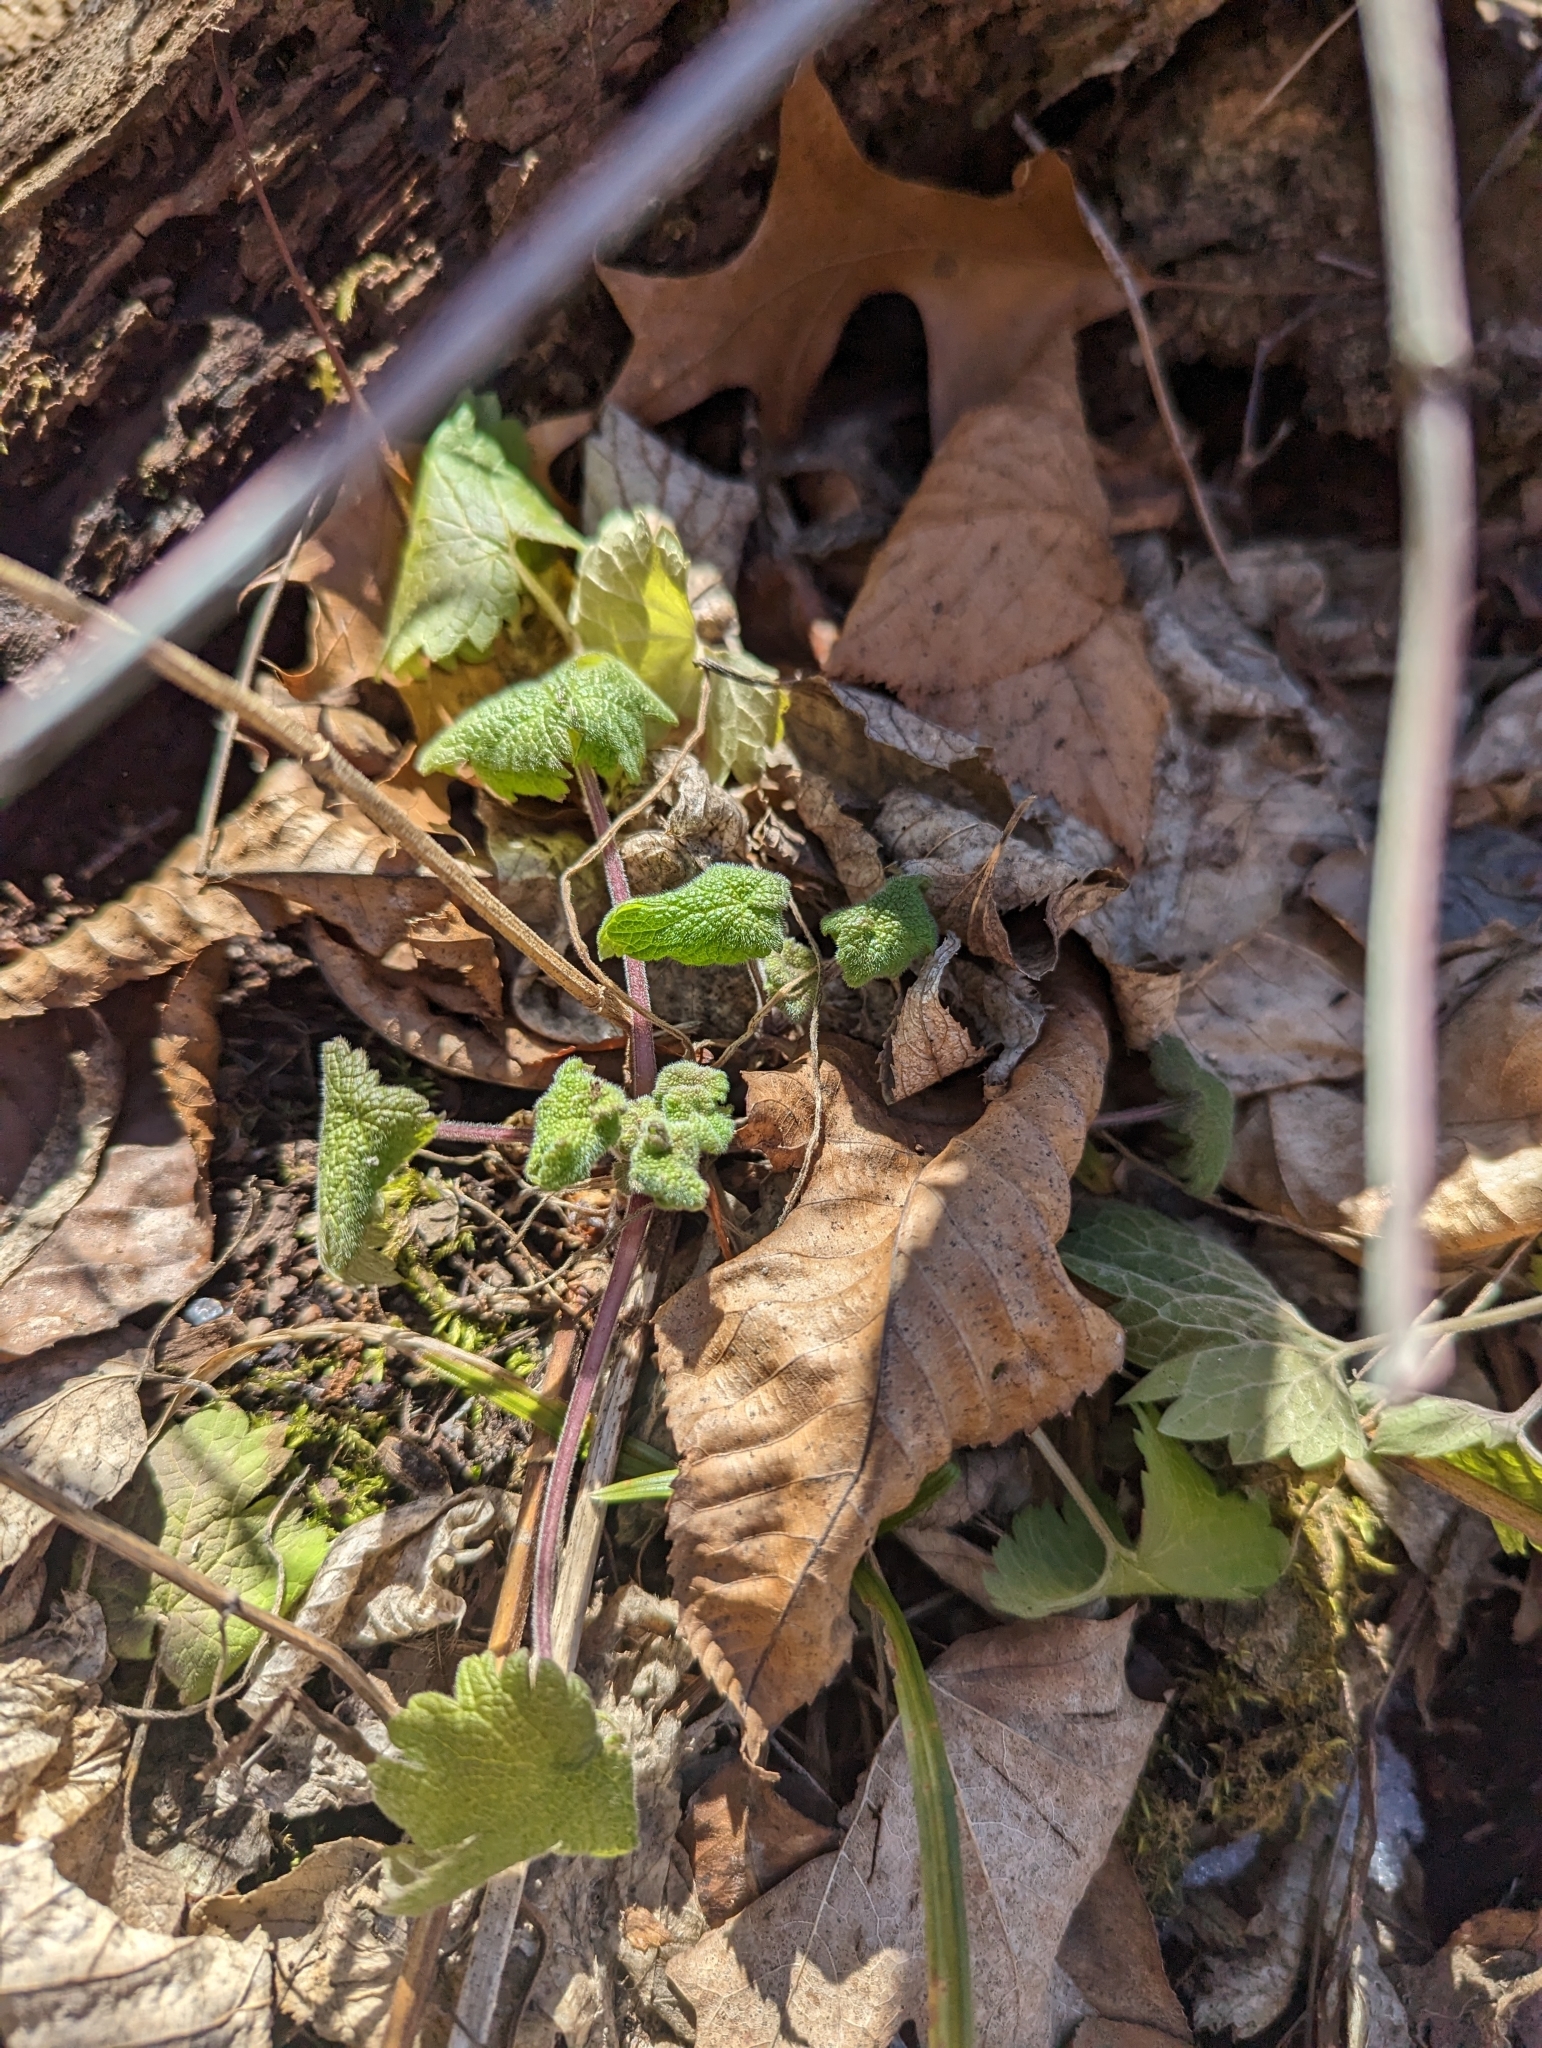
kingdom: Plantae
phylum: Tracheophyta
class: Magnoliopsida
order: Lamiales
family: Lamiaceae
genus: Leonurus
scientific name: Leonurus cardiaca
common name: Motherwort
